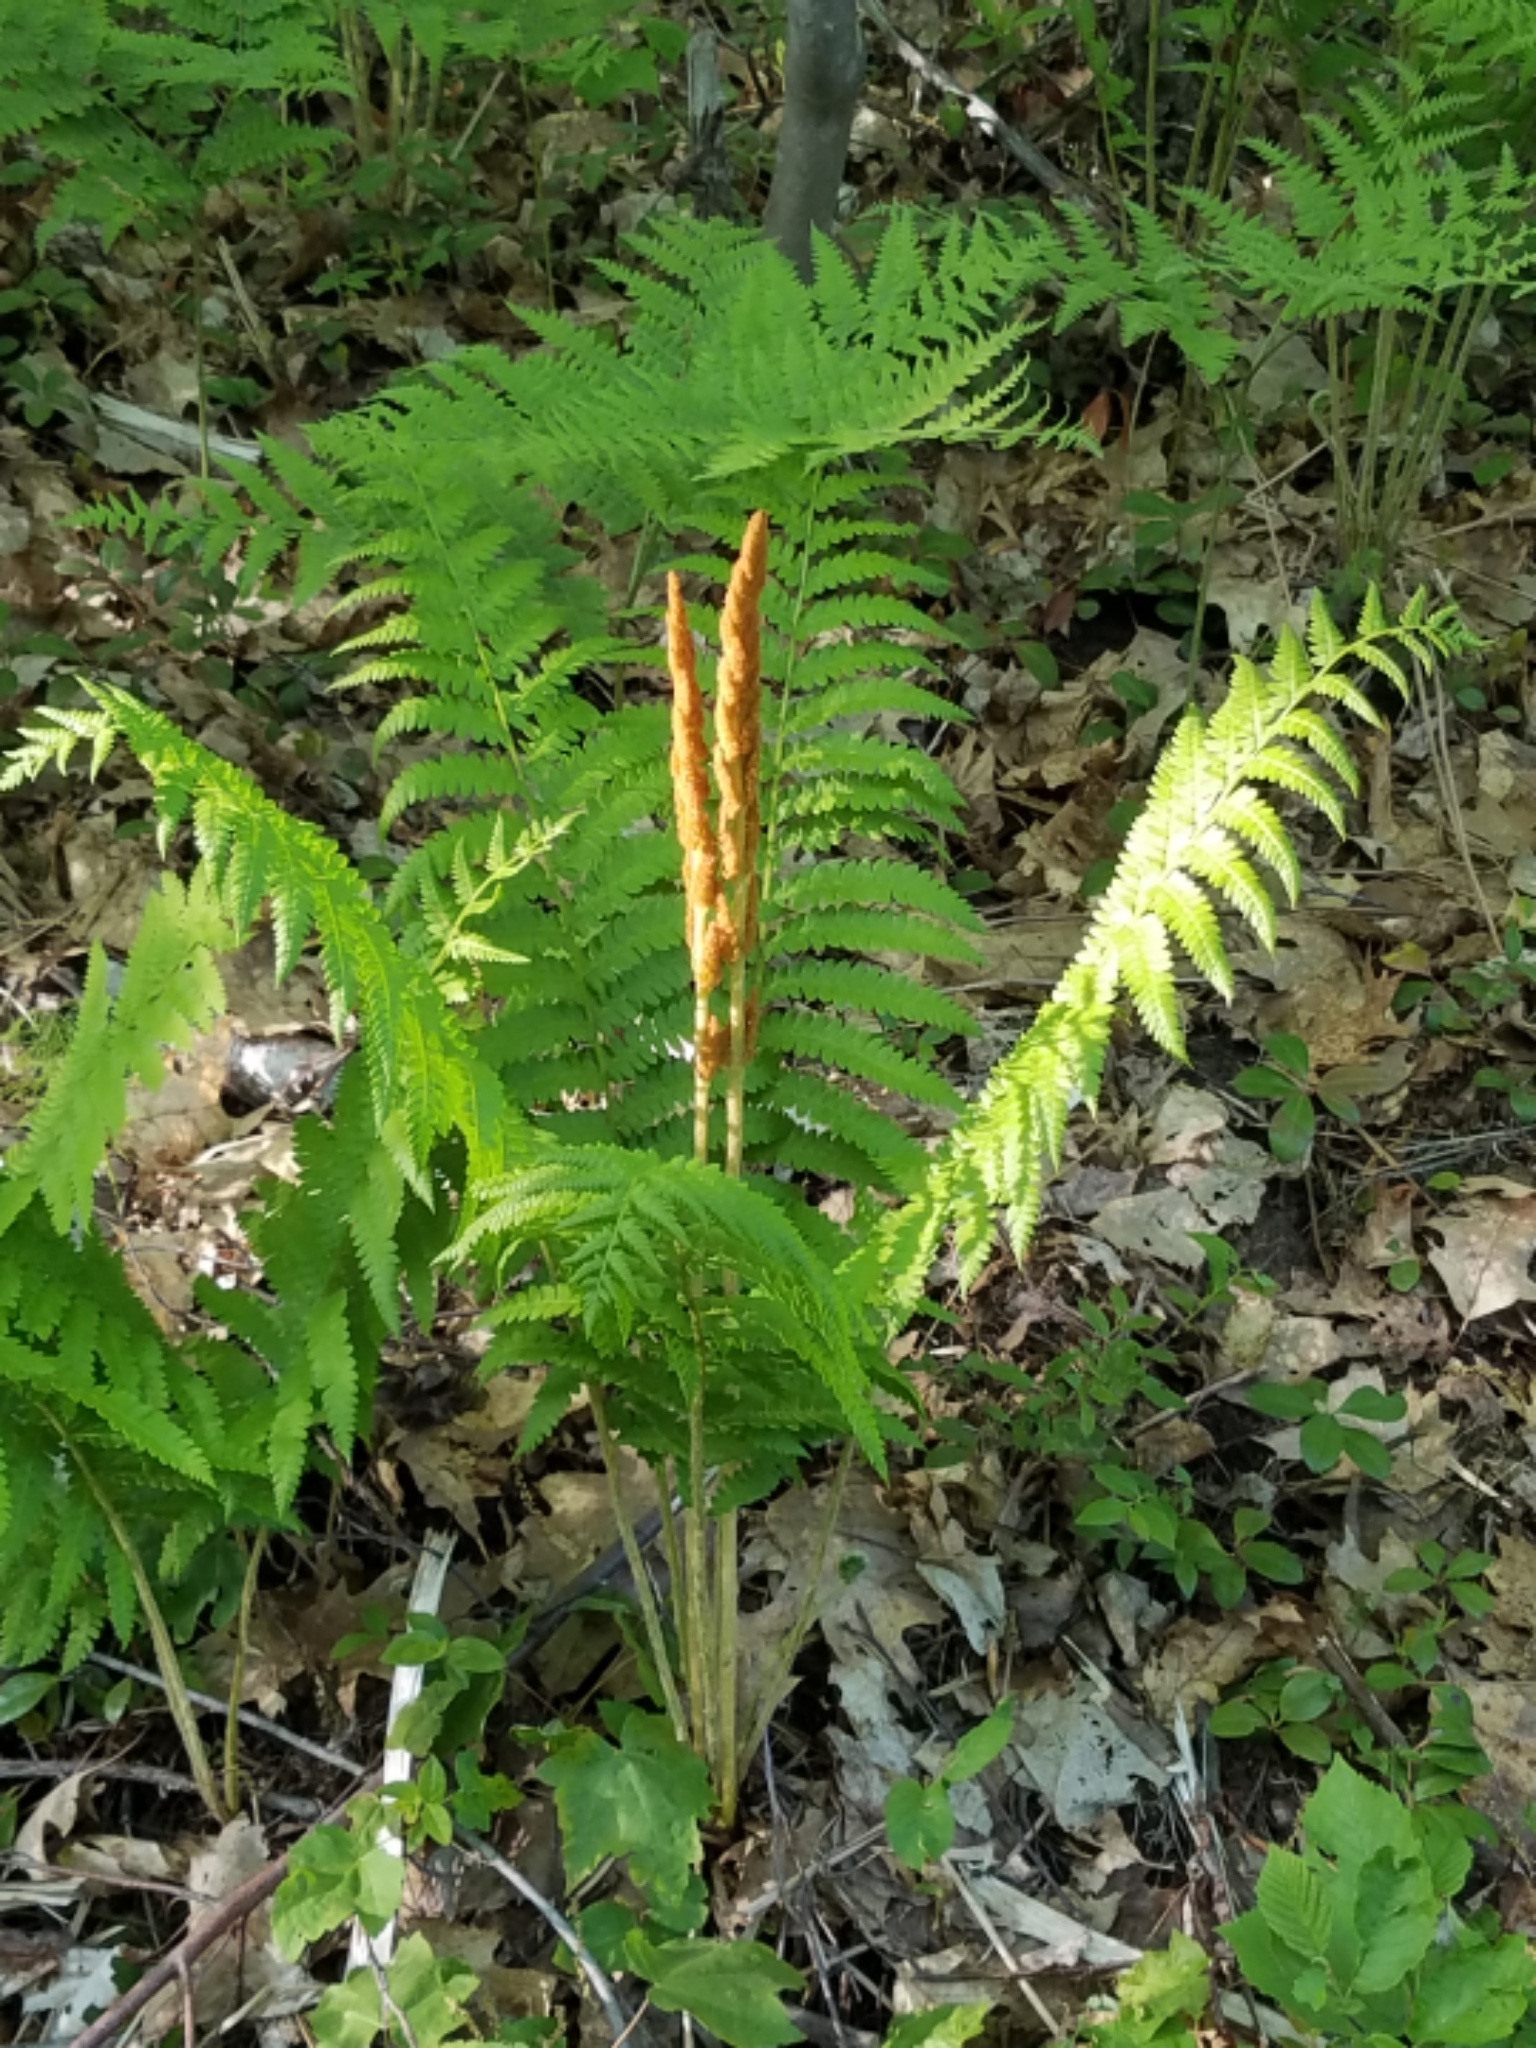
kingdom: Plantae
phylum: Tracheophyta
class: Polypodiopsida
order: Osmundales
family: Osmundaceae
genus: Osmundastrum
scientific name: Osmundastrum cinnamomeum
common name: Cinnamon fern
